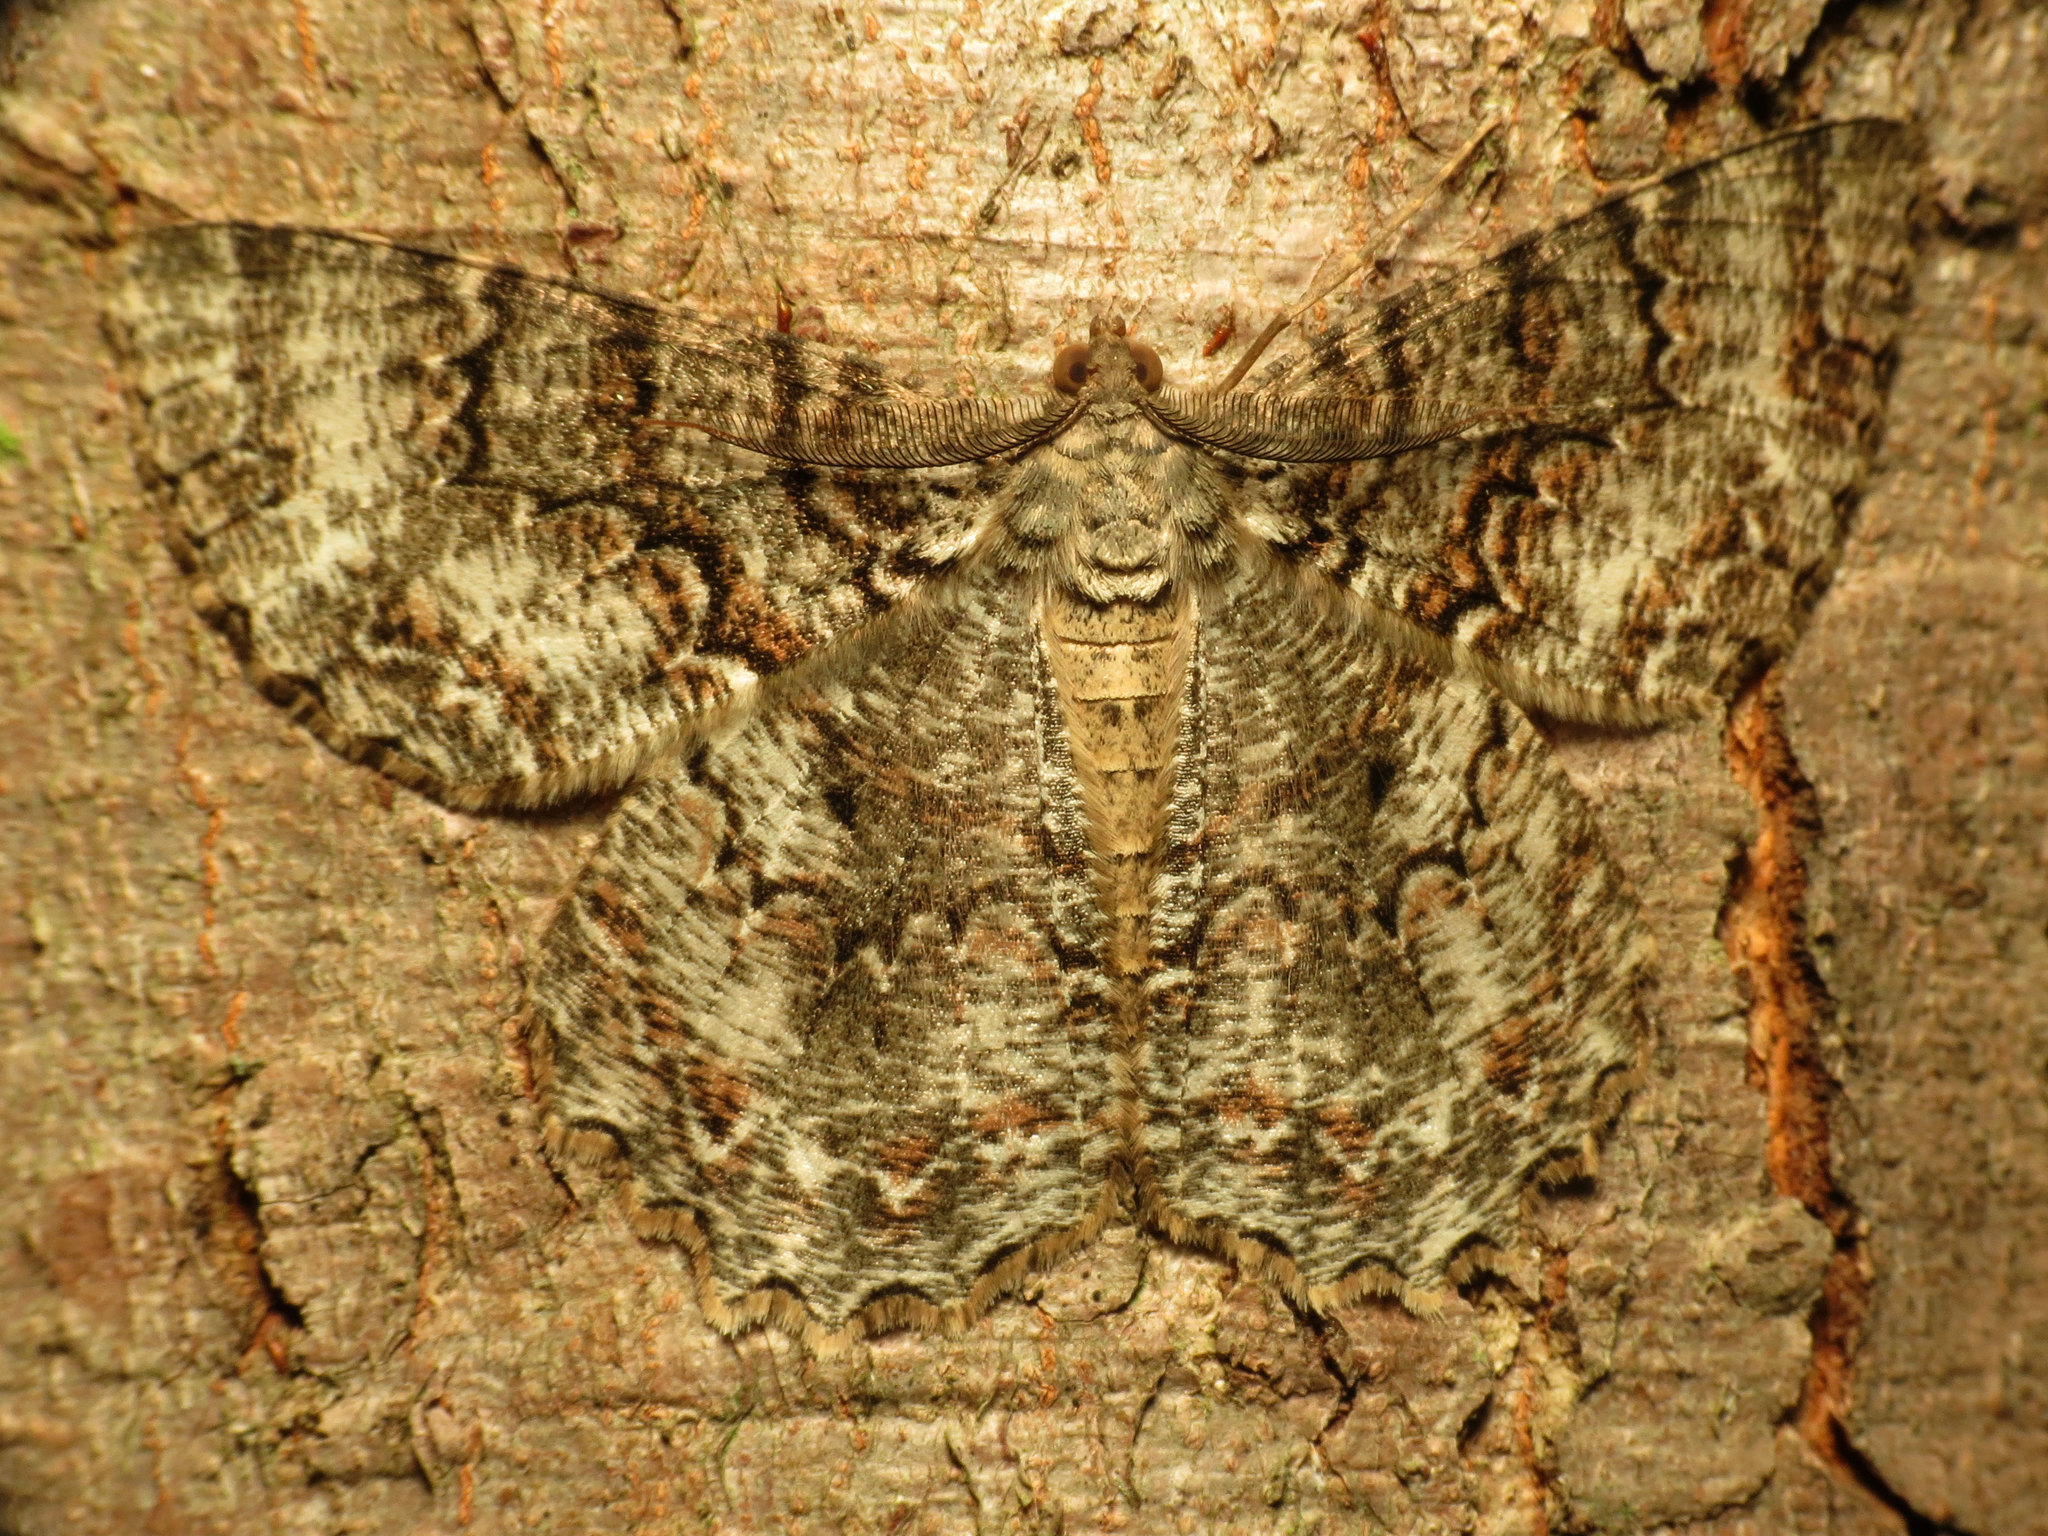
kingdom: Animalia
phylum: Arthropoda
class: Insecta
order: Lepidoptera
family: Geometridae
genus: Epimecis
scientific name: Epimecis hortaria
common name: Tulip-tree beauty
